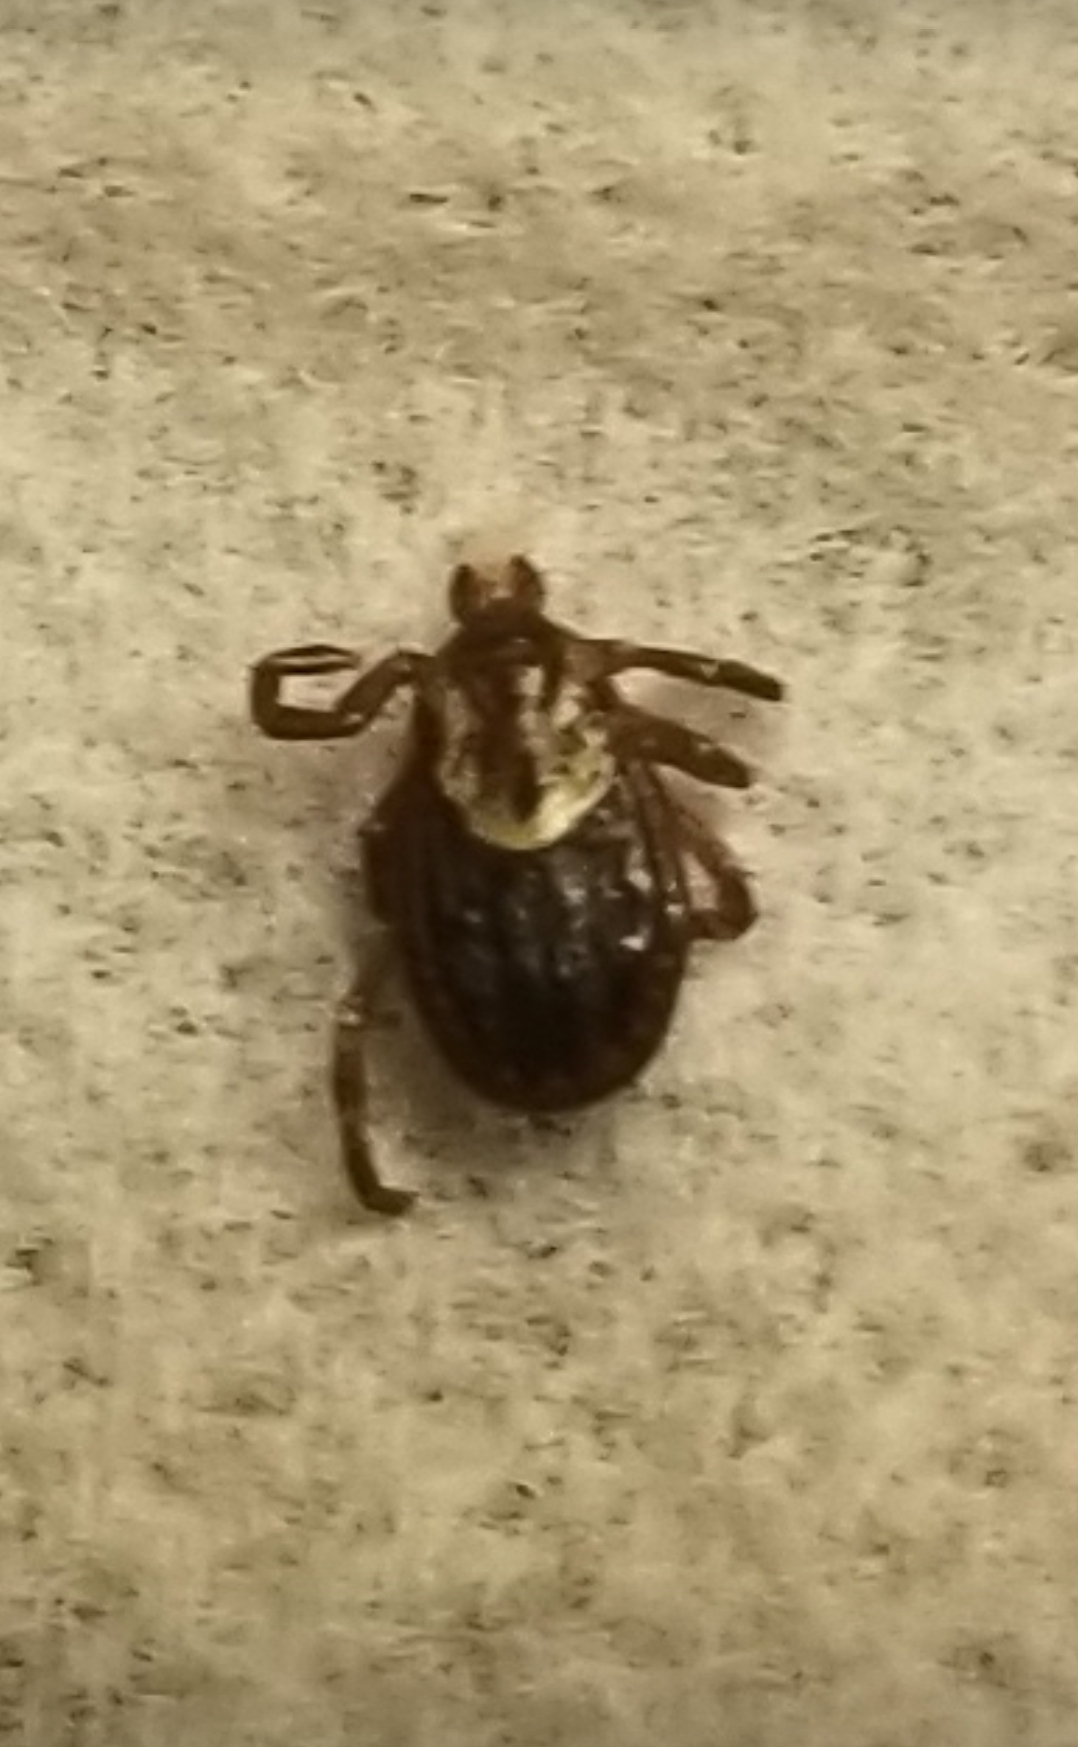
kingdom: Animalia
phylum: Arthropoda
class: Arachnida
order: Ixodida
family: Ixodidae
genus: Dermacentor
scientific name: Dermacentor variabilis
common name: American dog tick
